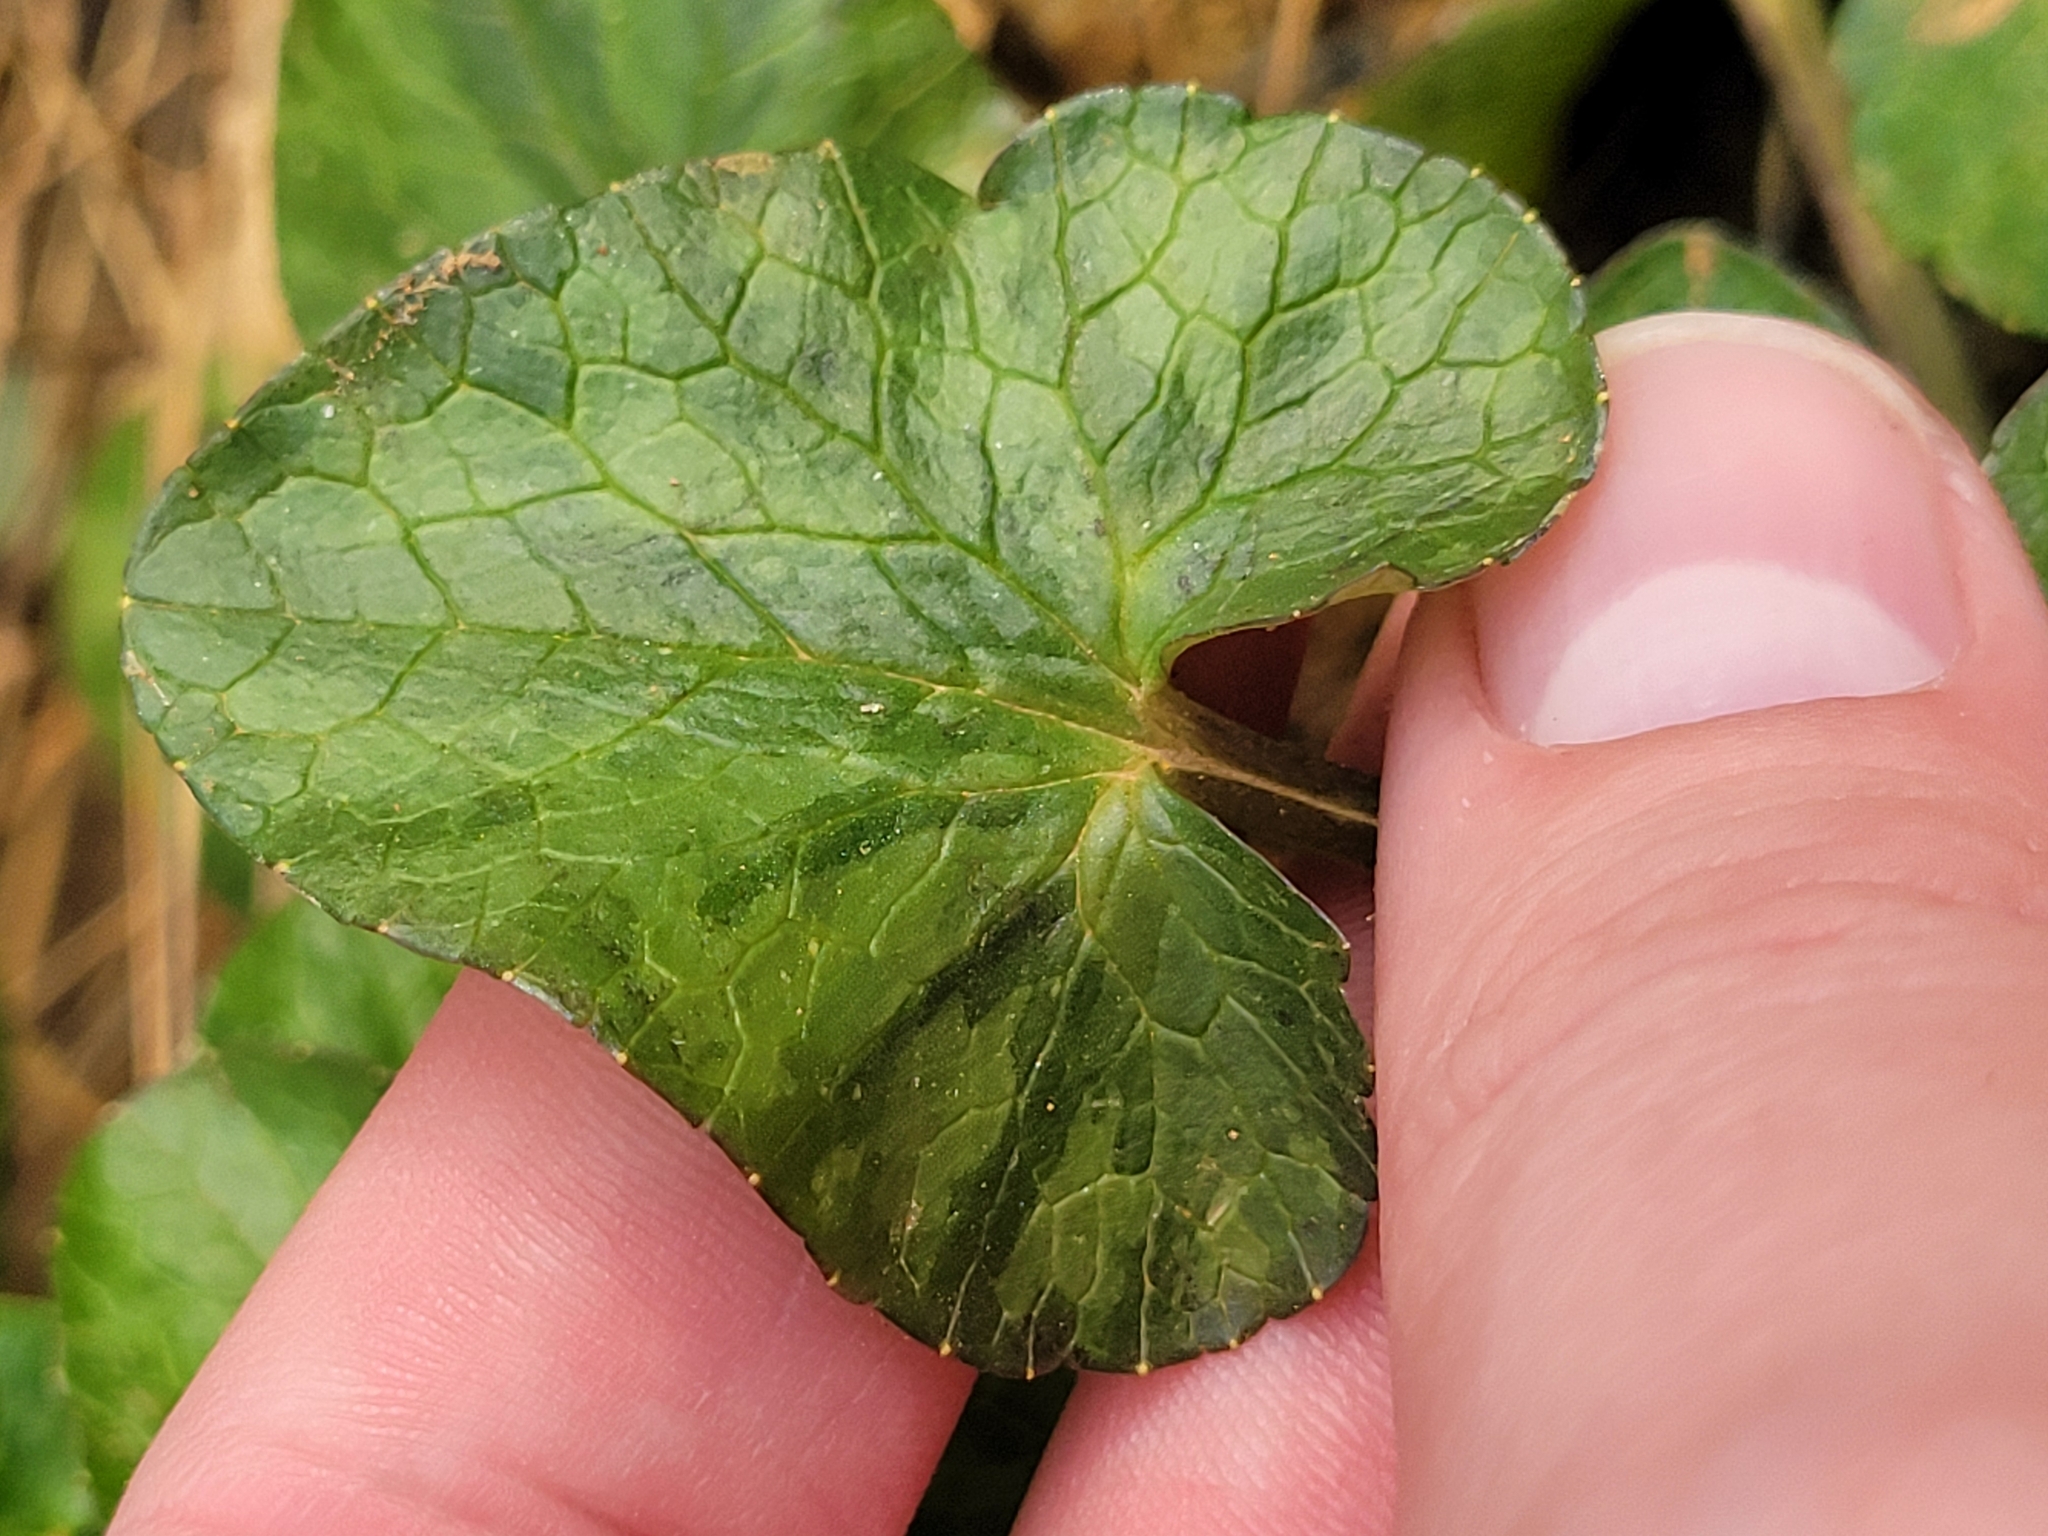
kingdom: Plantae
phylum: Tracheophyta
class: Magnoliopsida
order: Ranunculales
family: Ranunculaceae
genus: Ficaria
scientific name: Ficaria verna
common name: Lesser celandine
